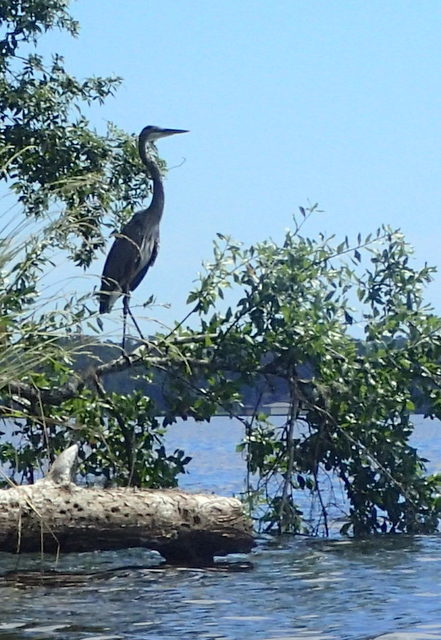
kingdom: Animalia
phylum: Chordata
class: Aves
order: Pelecaniformes
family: Ardeidae
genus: Ardea
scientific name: Ardea herodias
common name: Great blue heron
